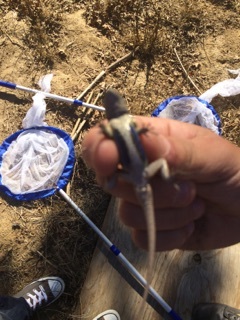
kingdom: Animalia
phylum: Chordata
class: Squamata
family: Phrynosomatidae
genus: Sceloporus
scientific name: Sceloporus occidentalis
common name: Western fence lizard
